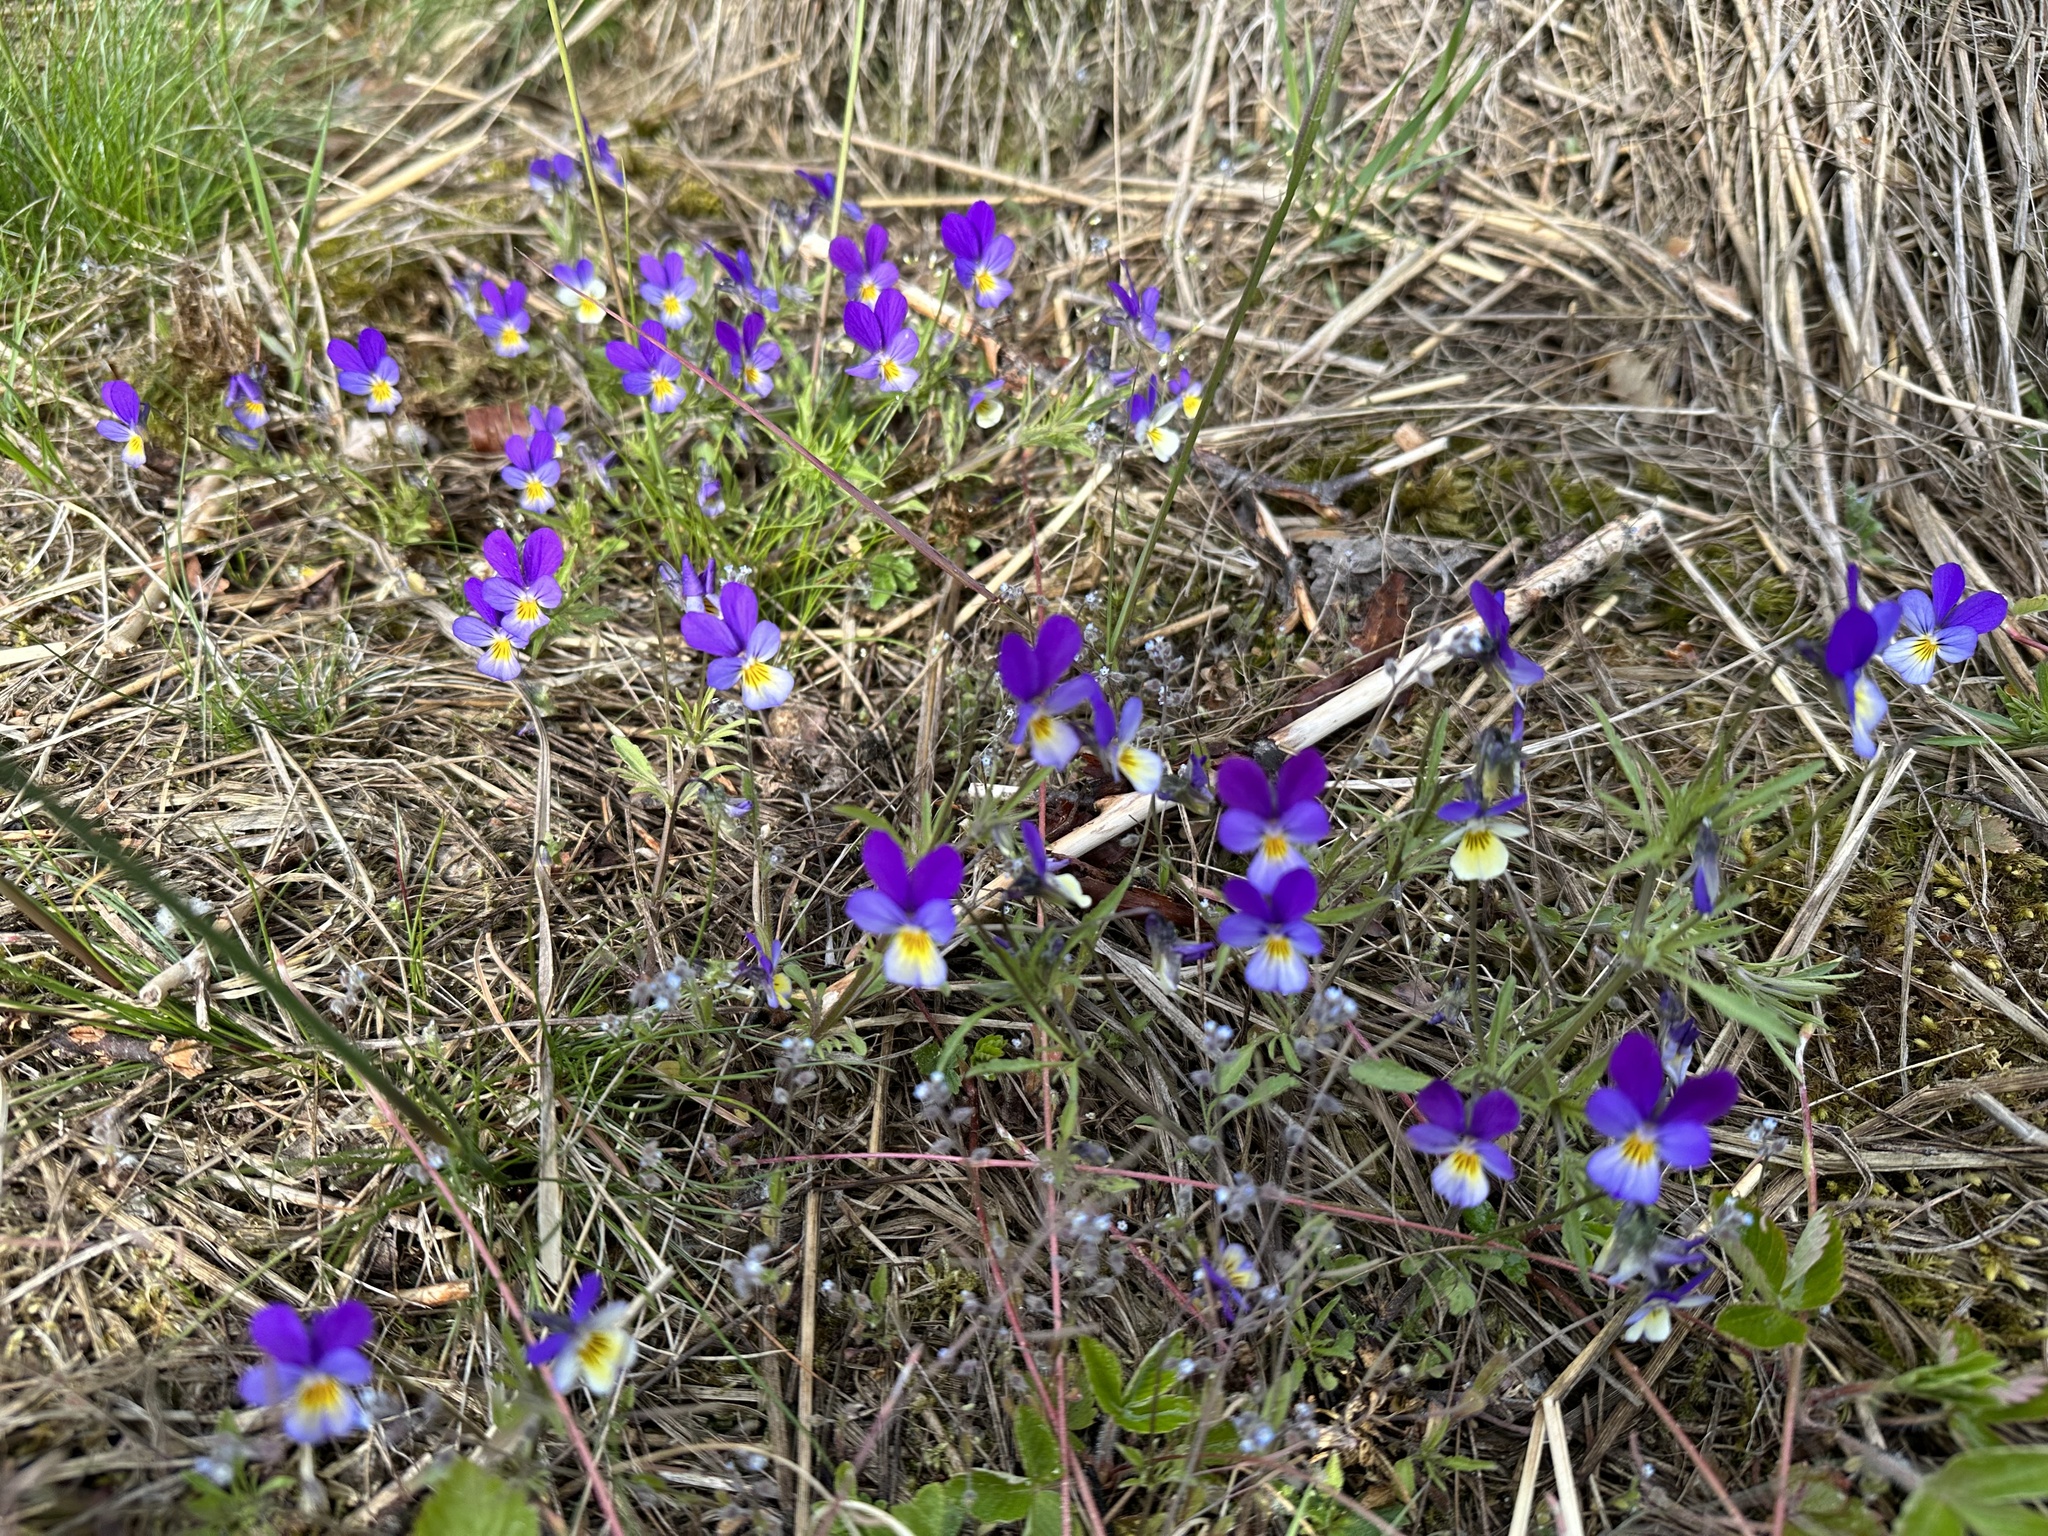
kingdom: Plantae
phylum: Tracheophyta
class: Magnoliopsida
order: Malpighiales
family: Violaceae
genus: Viola
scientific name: Viola tricolor
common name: Pansy
